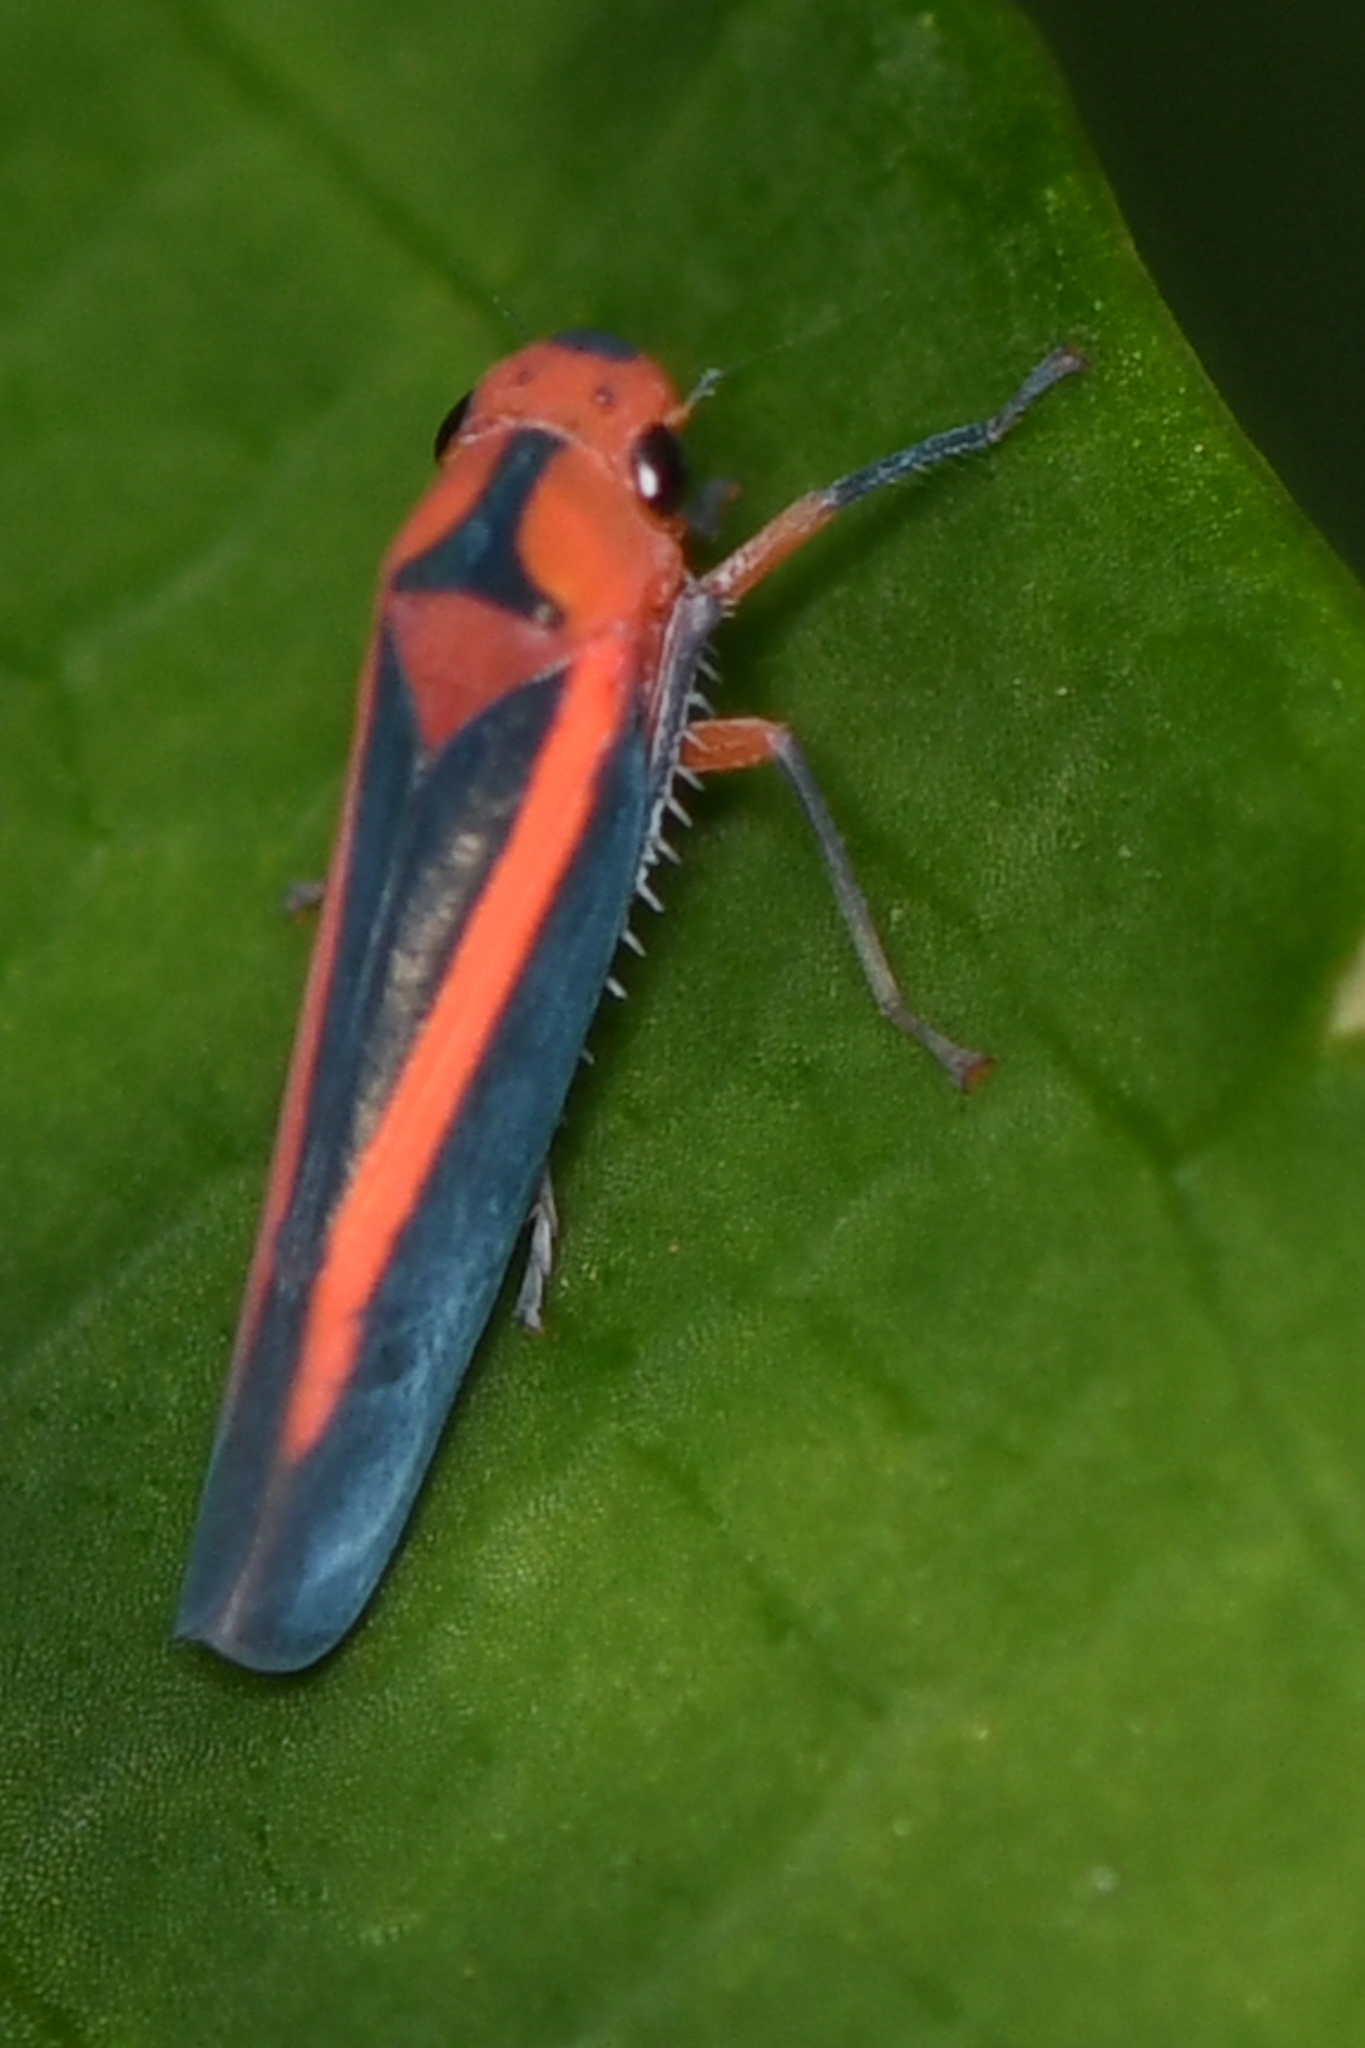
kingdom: Animalia
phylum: Arthropoda
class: Insecta
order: Hemiptera
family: Cicadellidae
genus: Gillonella
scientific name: Gillonella ampulla
